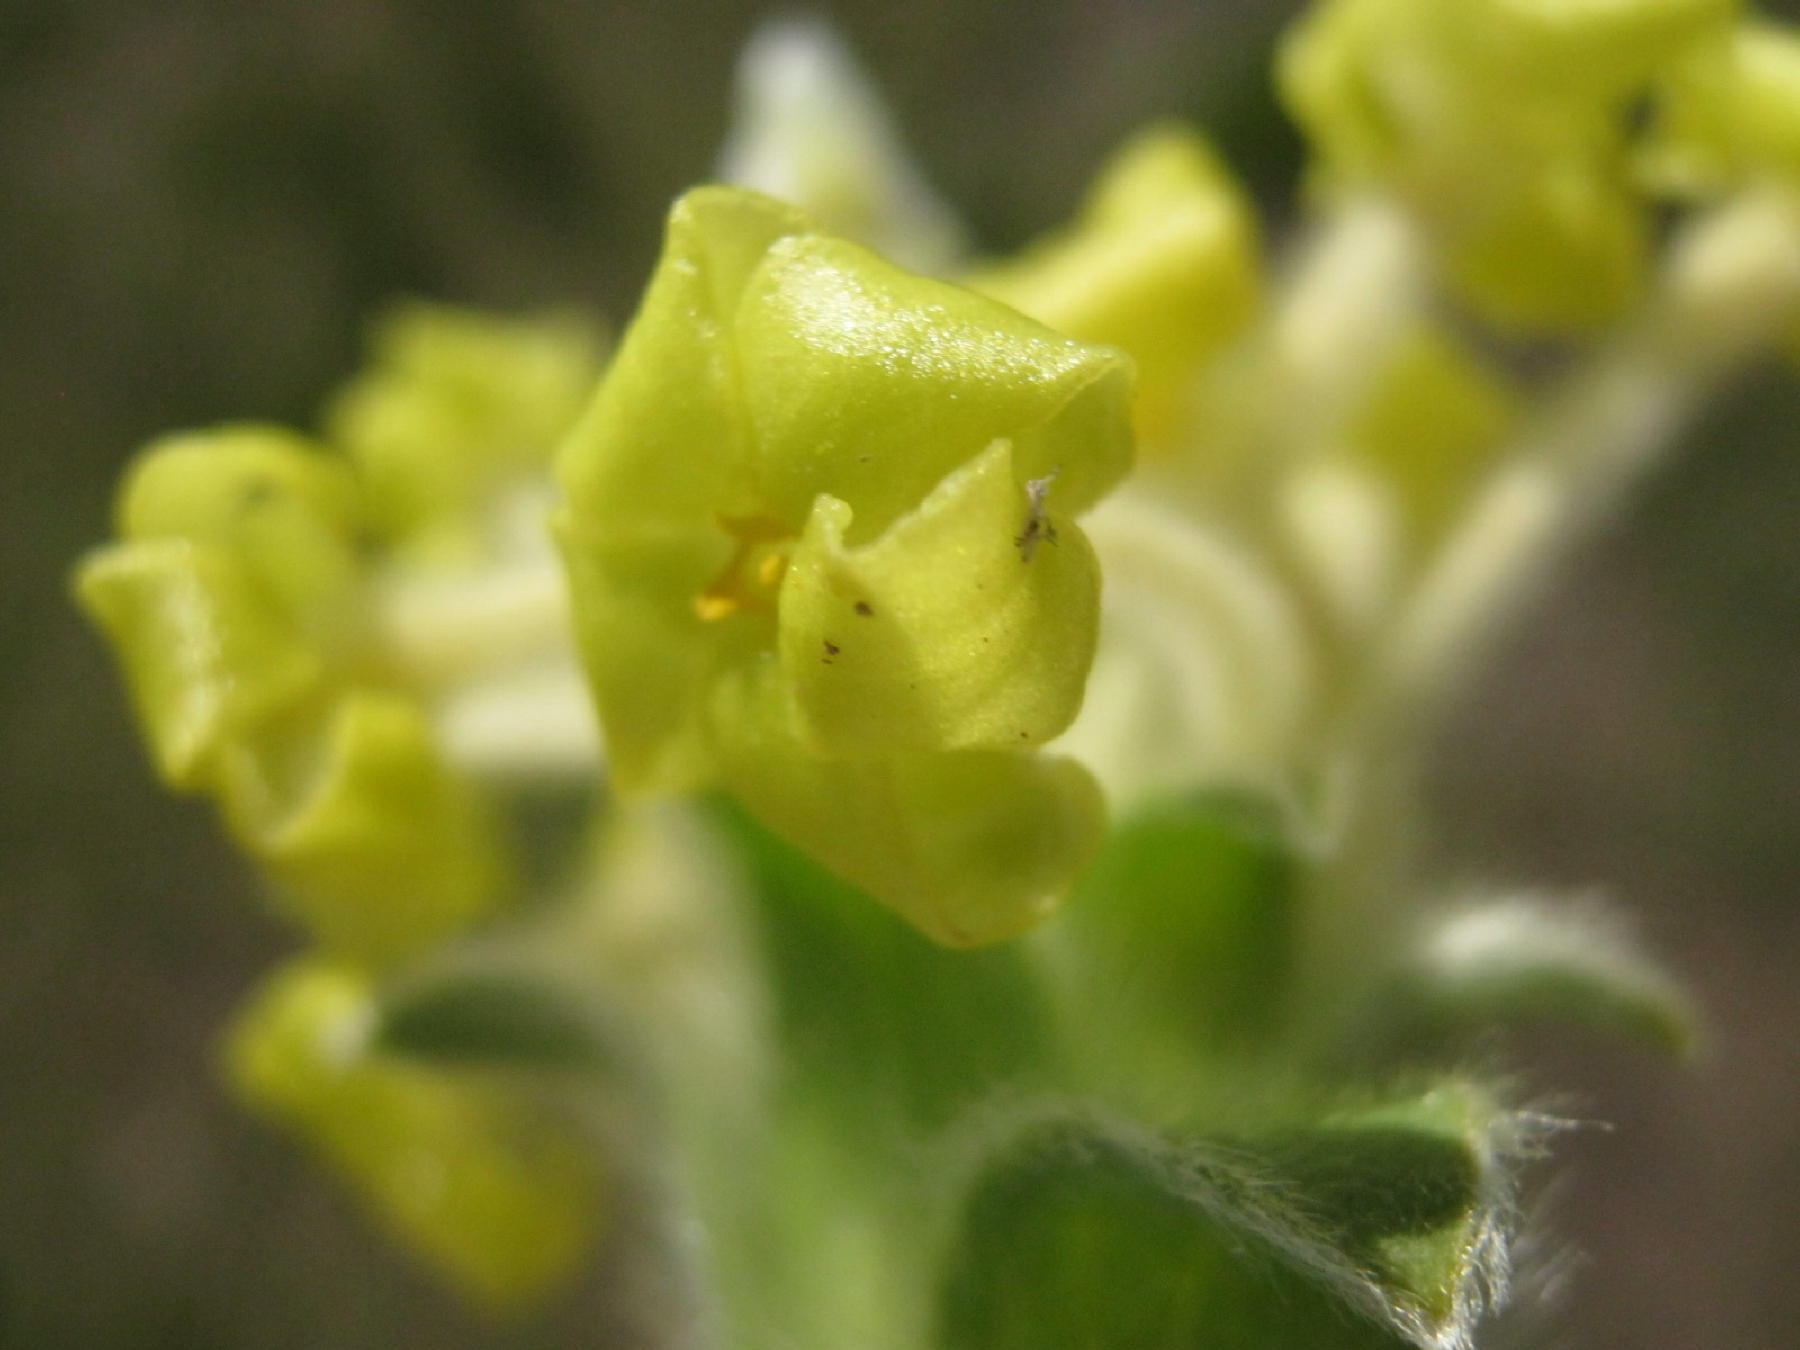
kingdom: Plantae
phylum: Tracheophyta
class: Magnoliopsida
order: Malvales
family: Thymelaeaceae
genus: Gnidia
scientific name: Gnidia anthylloides
